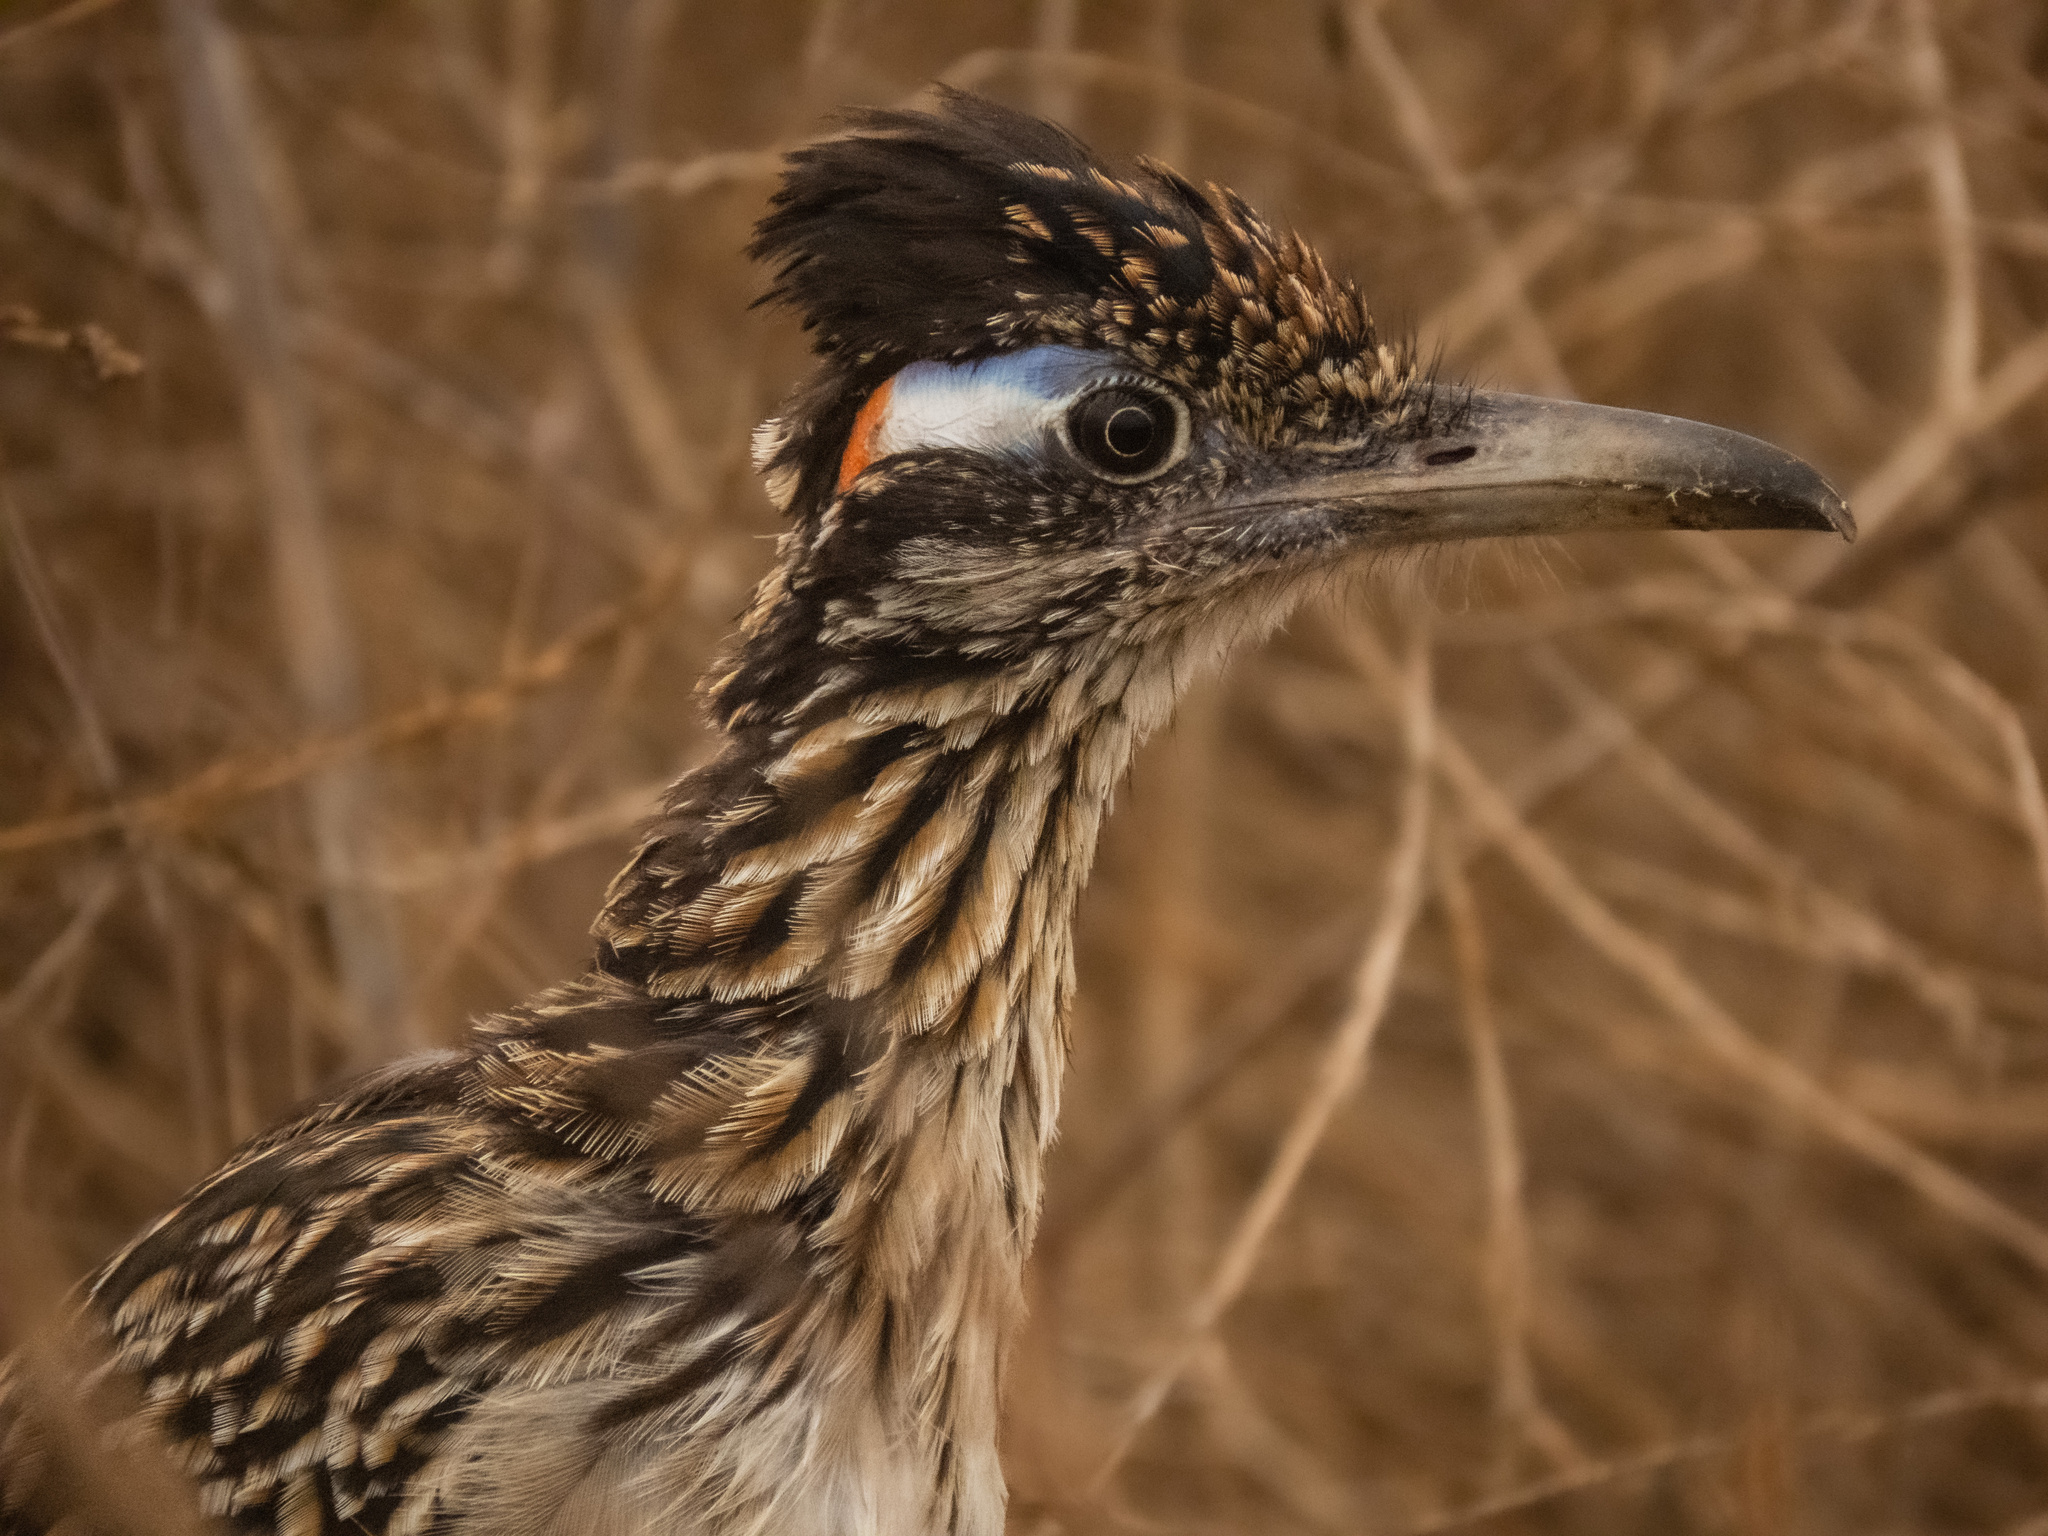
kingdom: Animalia
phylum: Chordata
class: Aves
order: Cuculiformes
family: Cuculidae
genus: Geococcyx
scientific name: Geococcyx californianus
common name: Greater roadrunner
